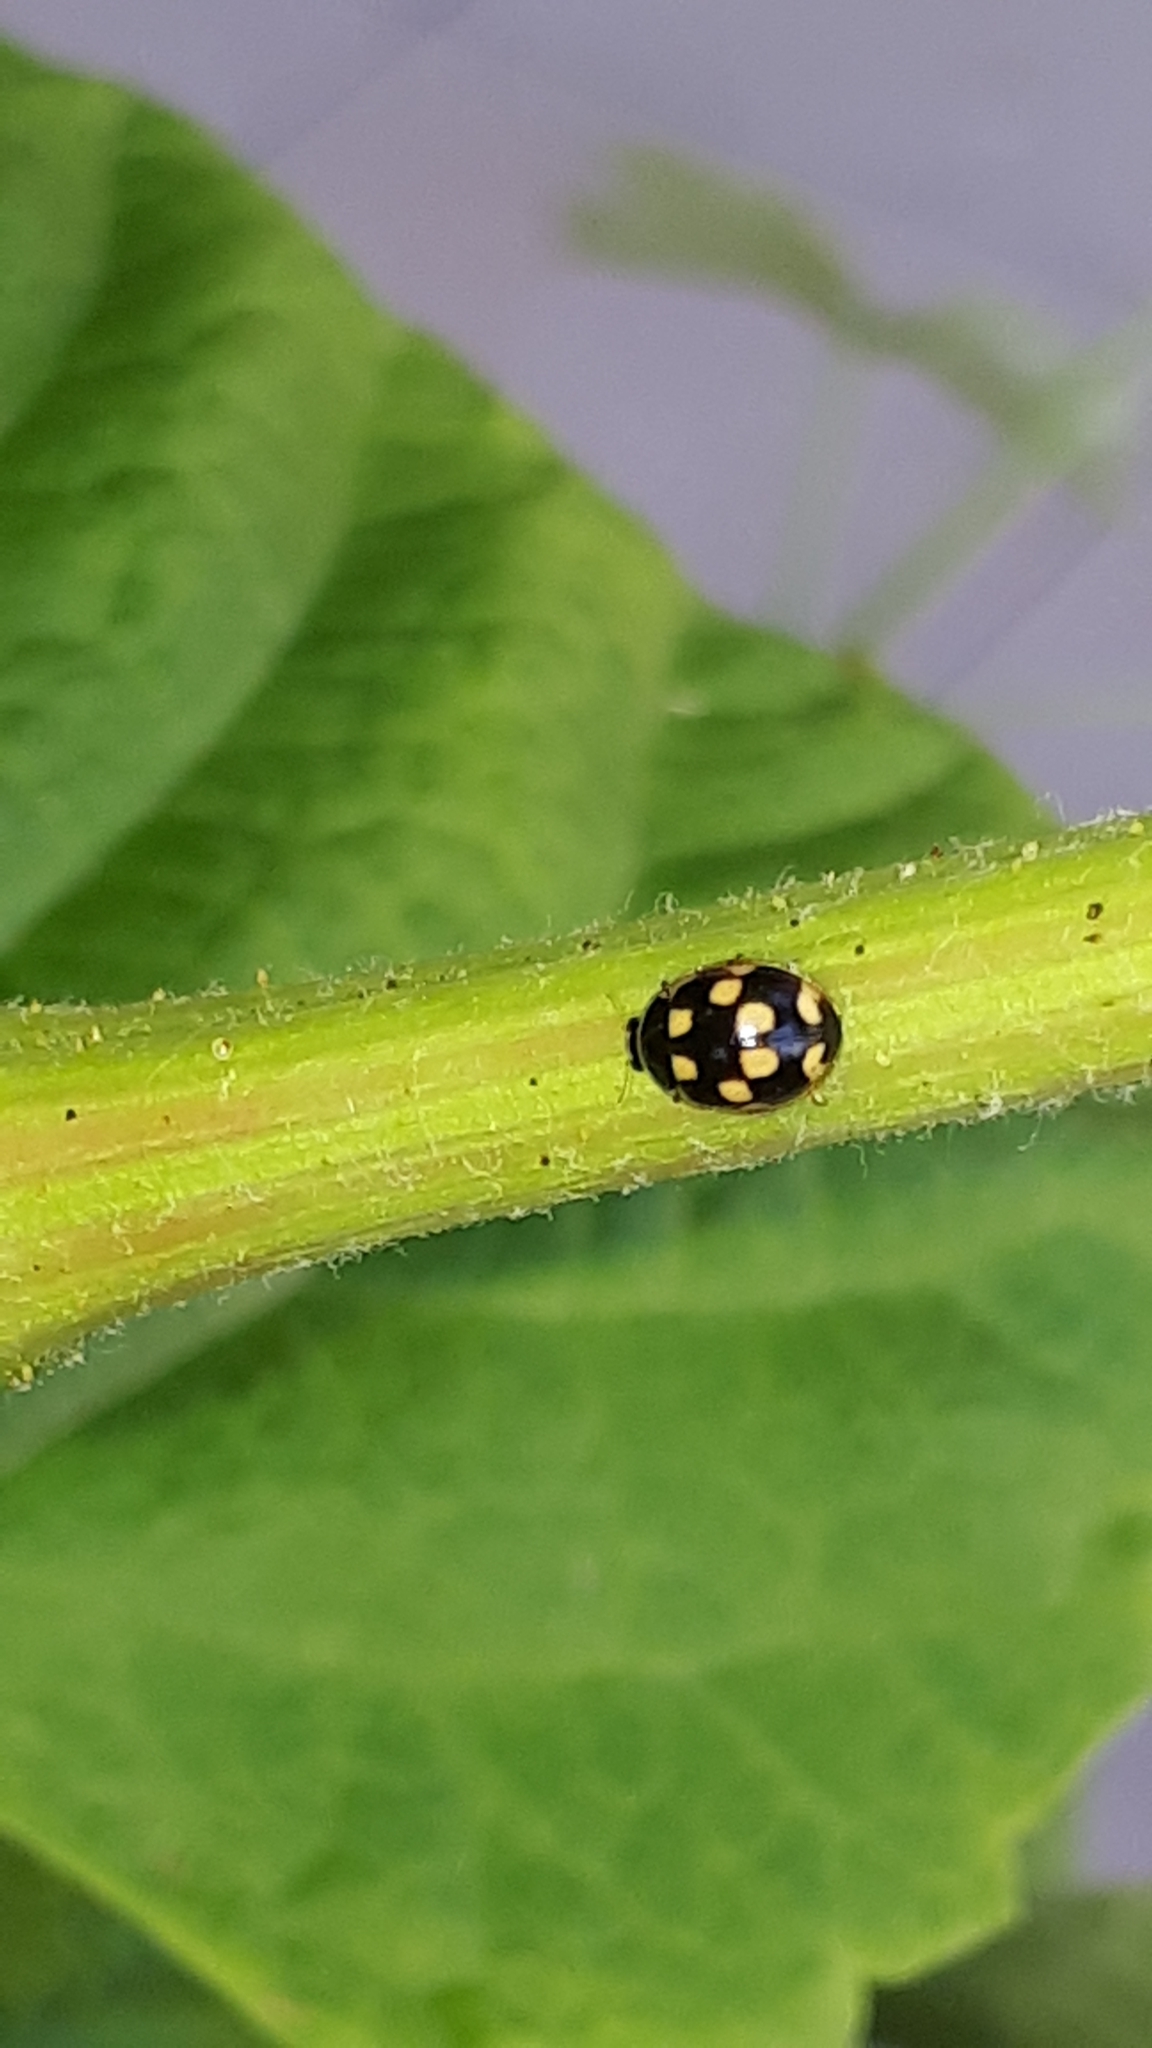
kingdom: Animalia
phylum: Arthropoda
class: Insecta
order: Coleoptera
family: Coccinellidae
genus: Propylaea
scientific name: Propylaea quatuordecimpunctata
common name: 14-spotted ladybird beetle
